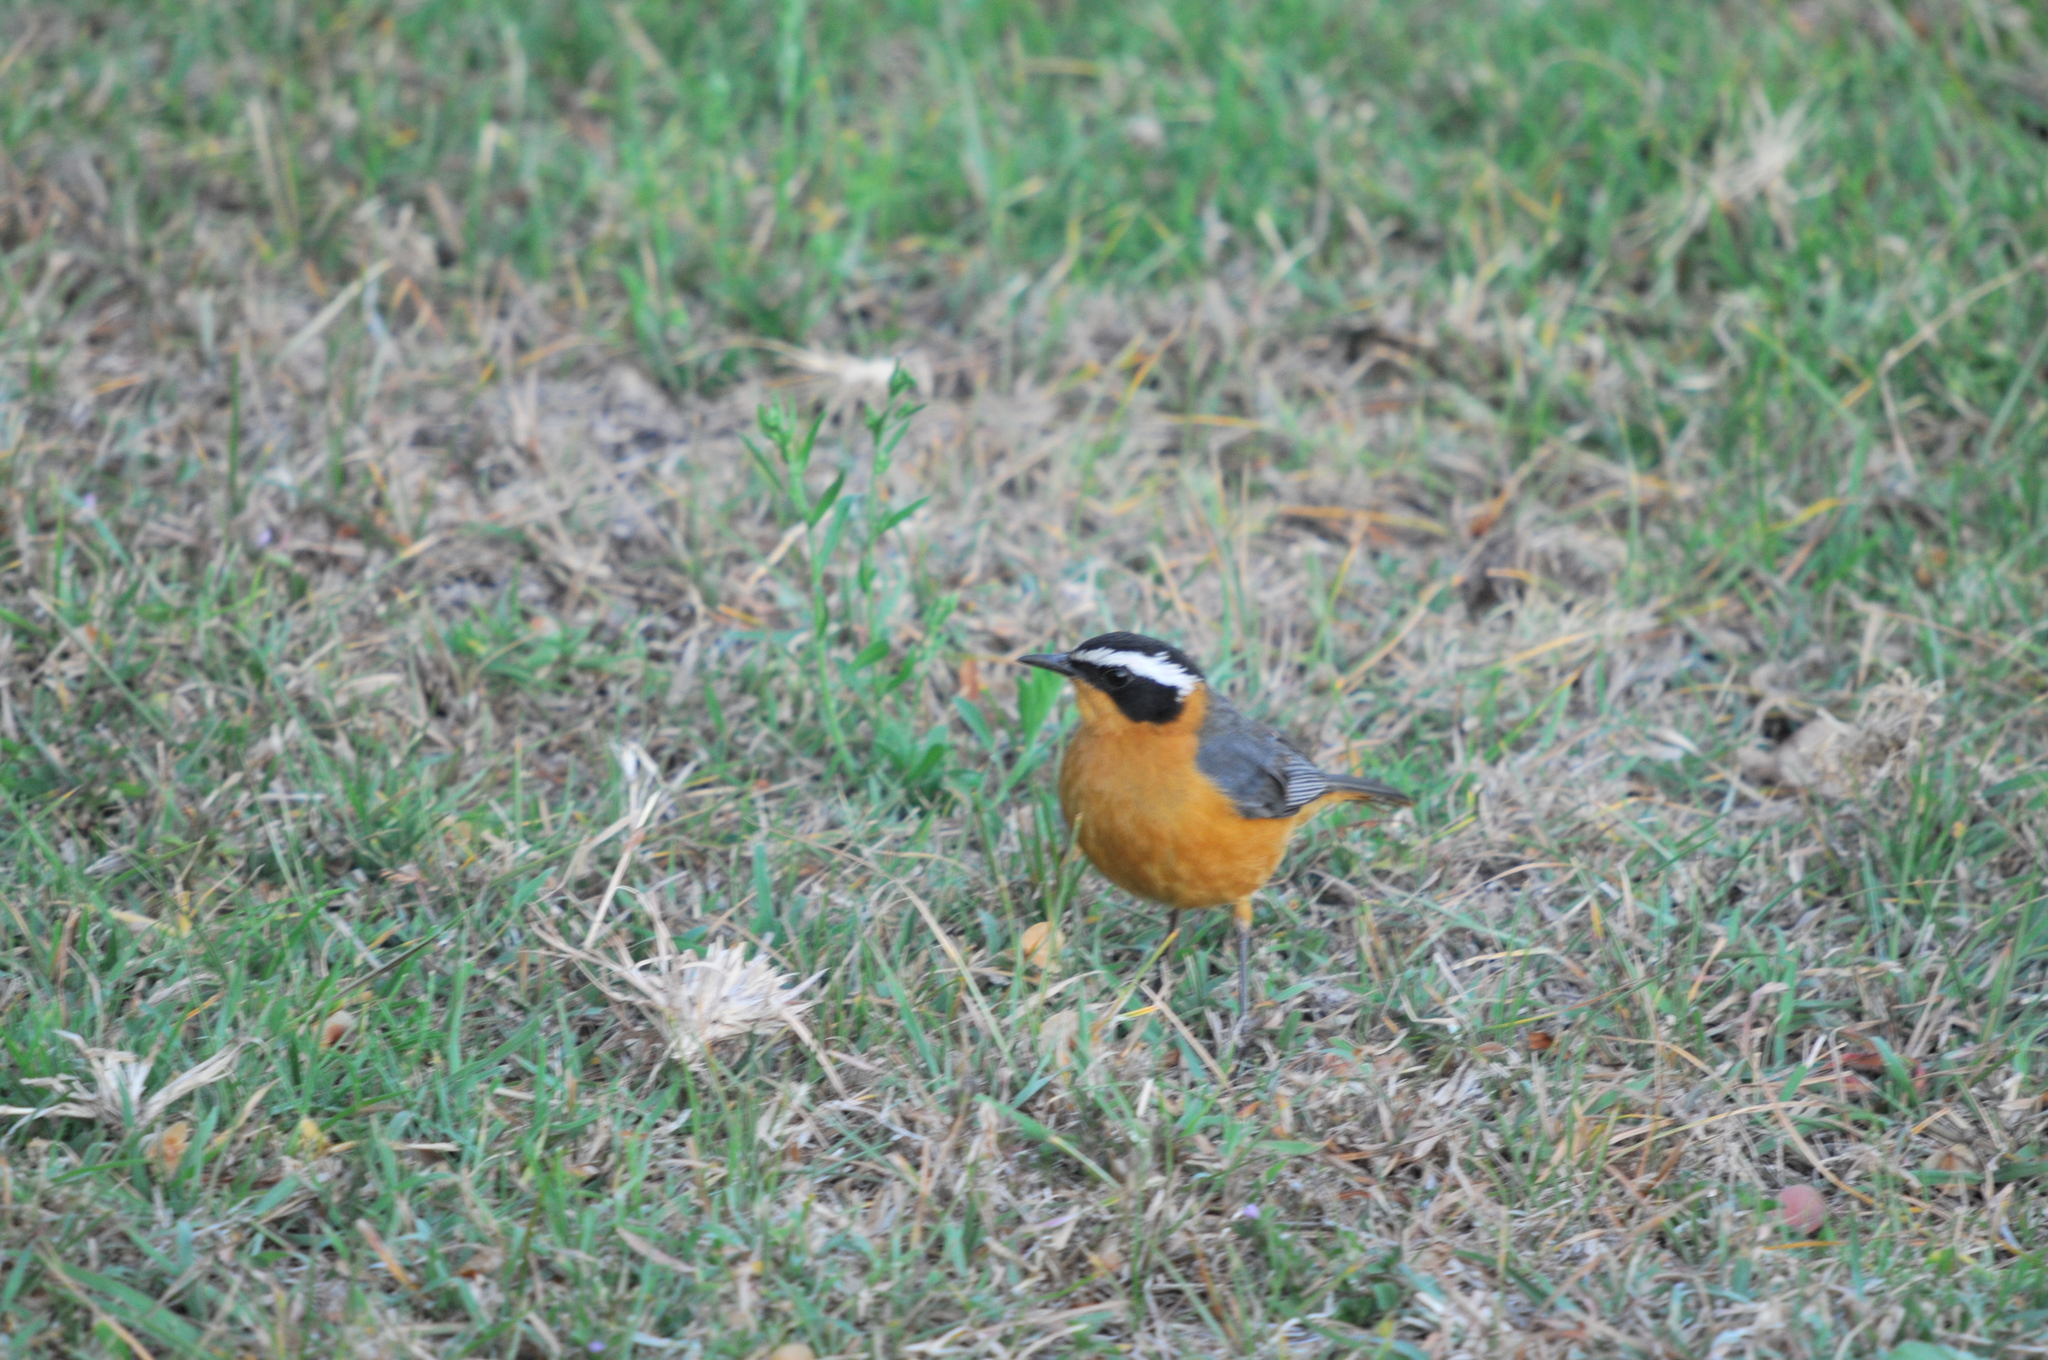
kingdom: Animalia
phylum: Chordata
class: Aves
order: Passeriformes
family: Muscicapidae
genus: Cossypha
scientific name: Cossypha heuglini
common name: White-browed robin-chat
